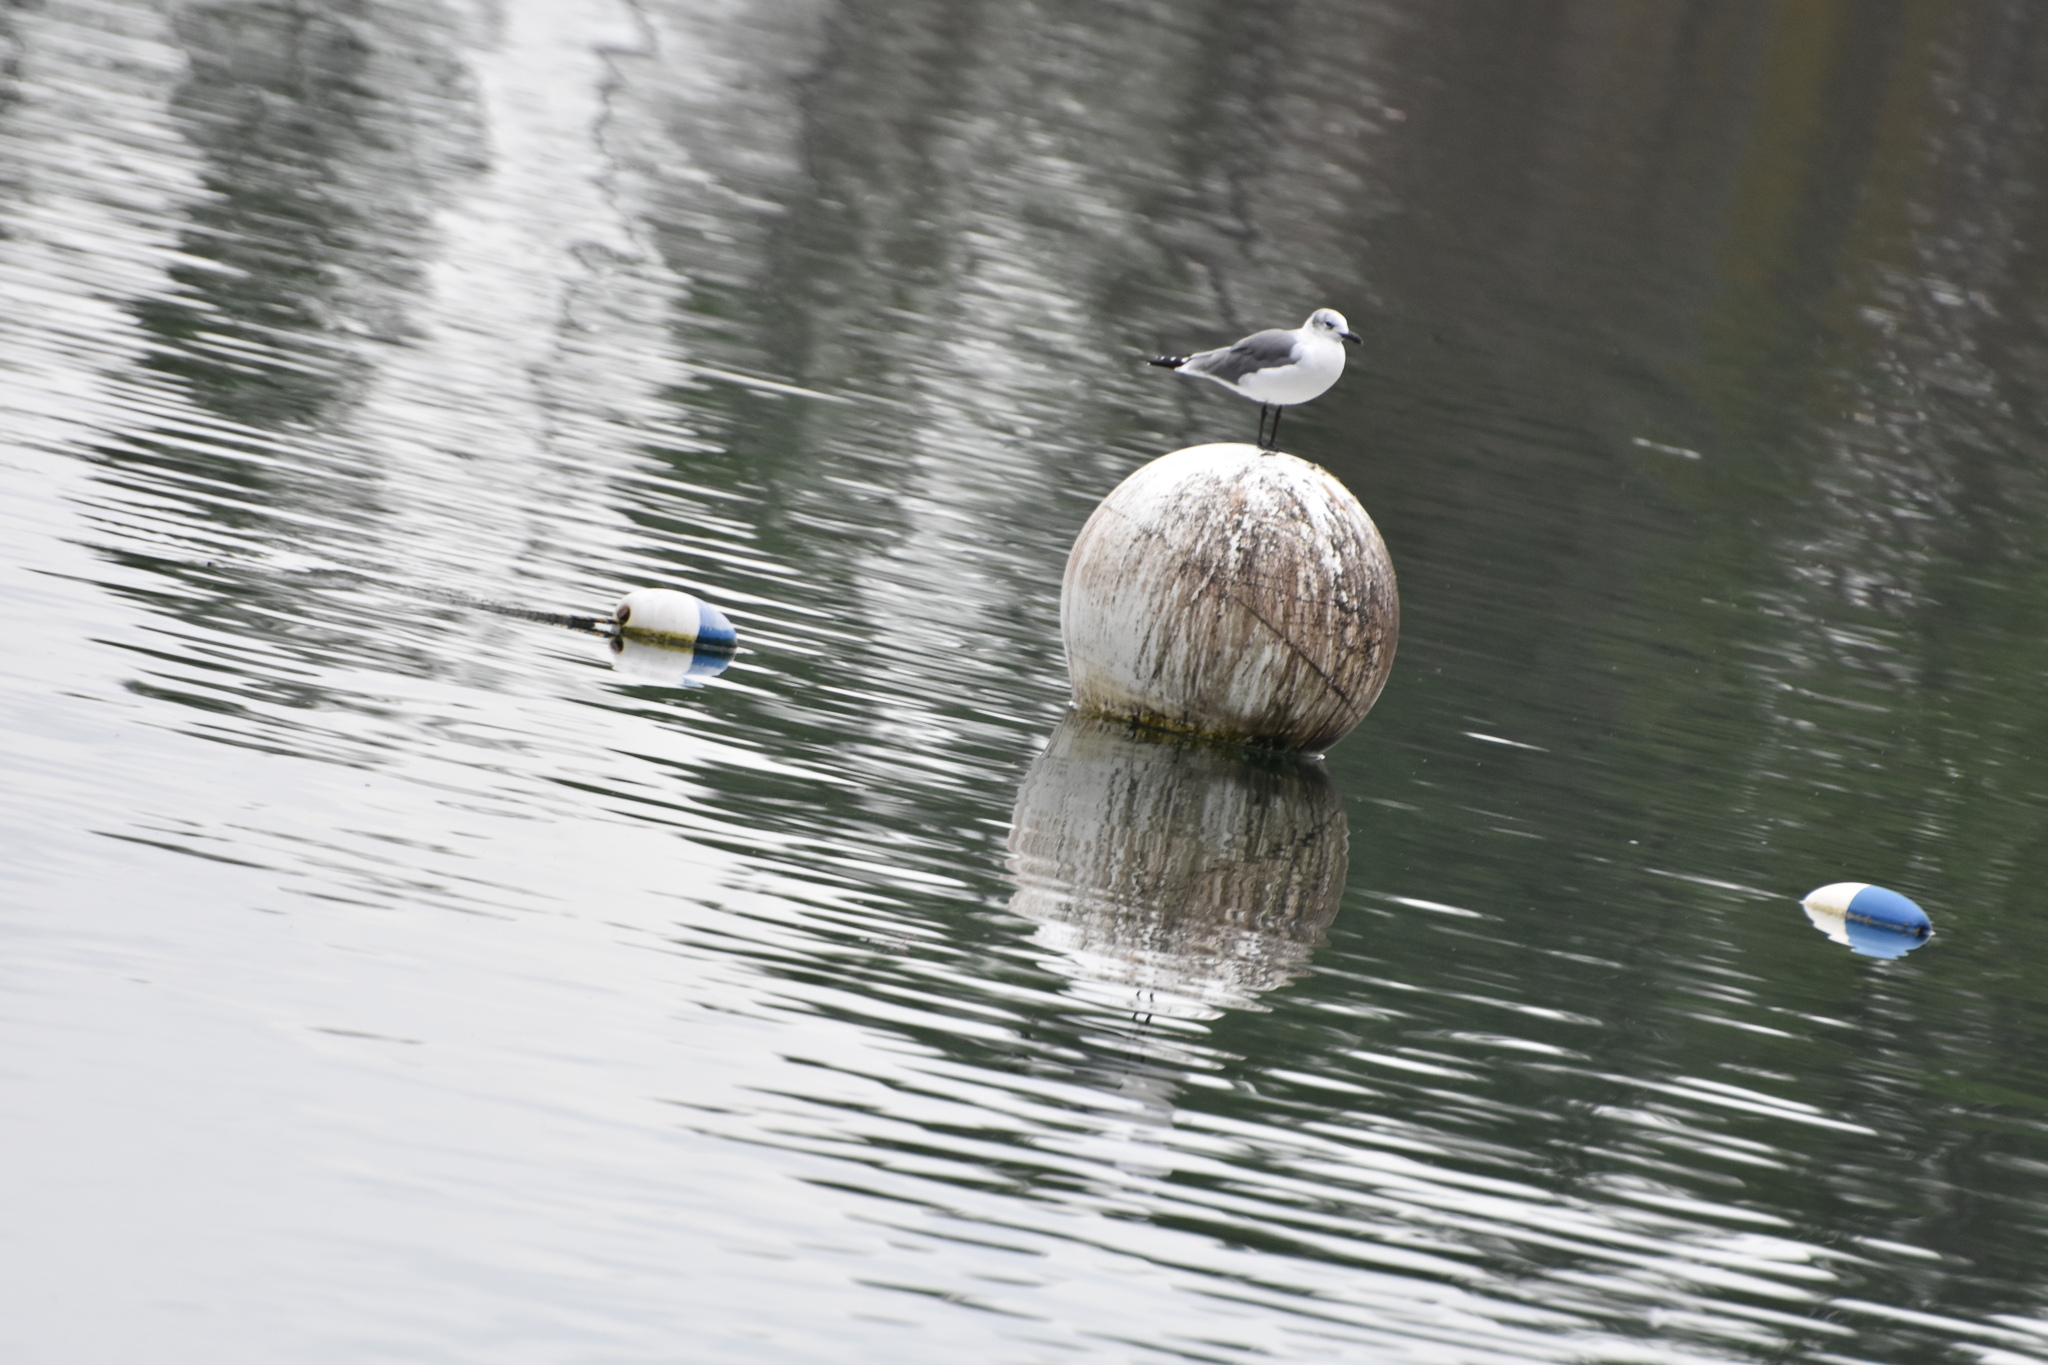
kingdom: Animalia
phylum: Chordata
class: Aves
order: Charadriiformes
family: Laridae
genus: Leucophaeus
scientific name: Leucophaeus atricilla
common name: Laughing gull
